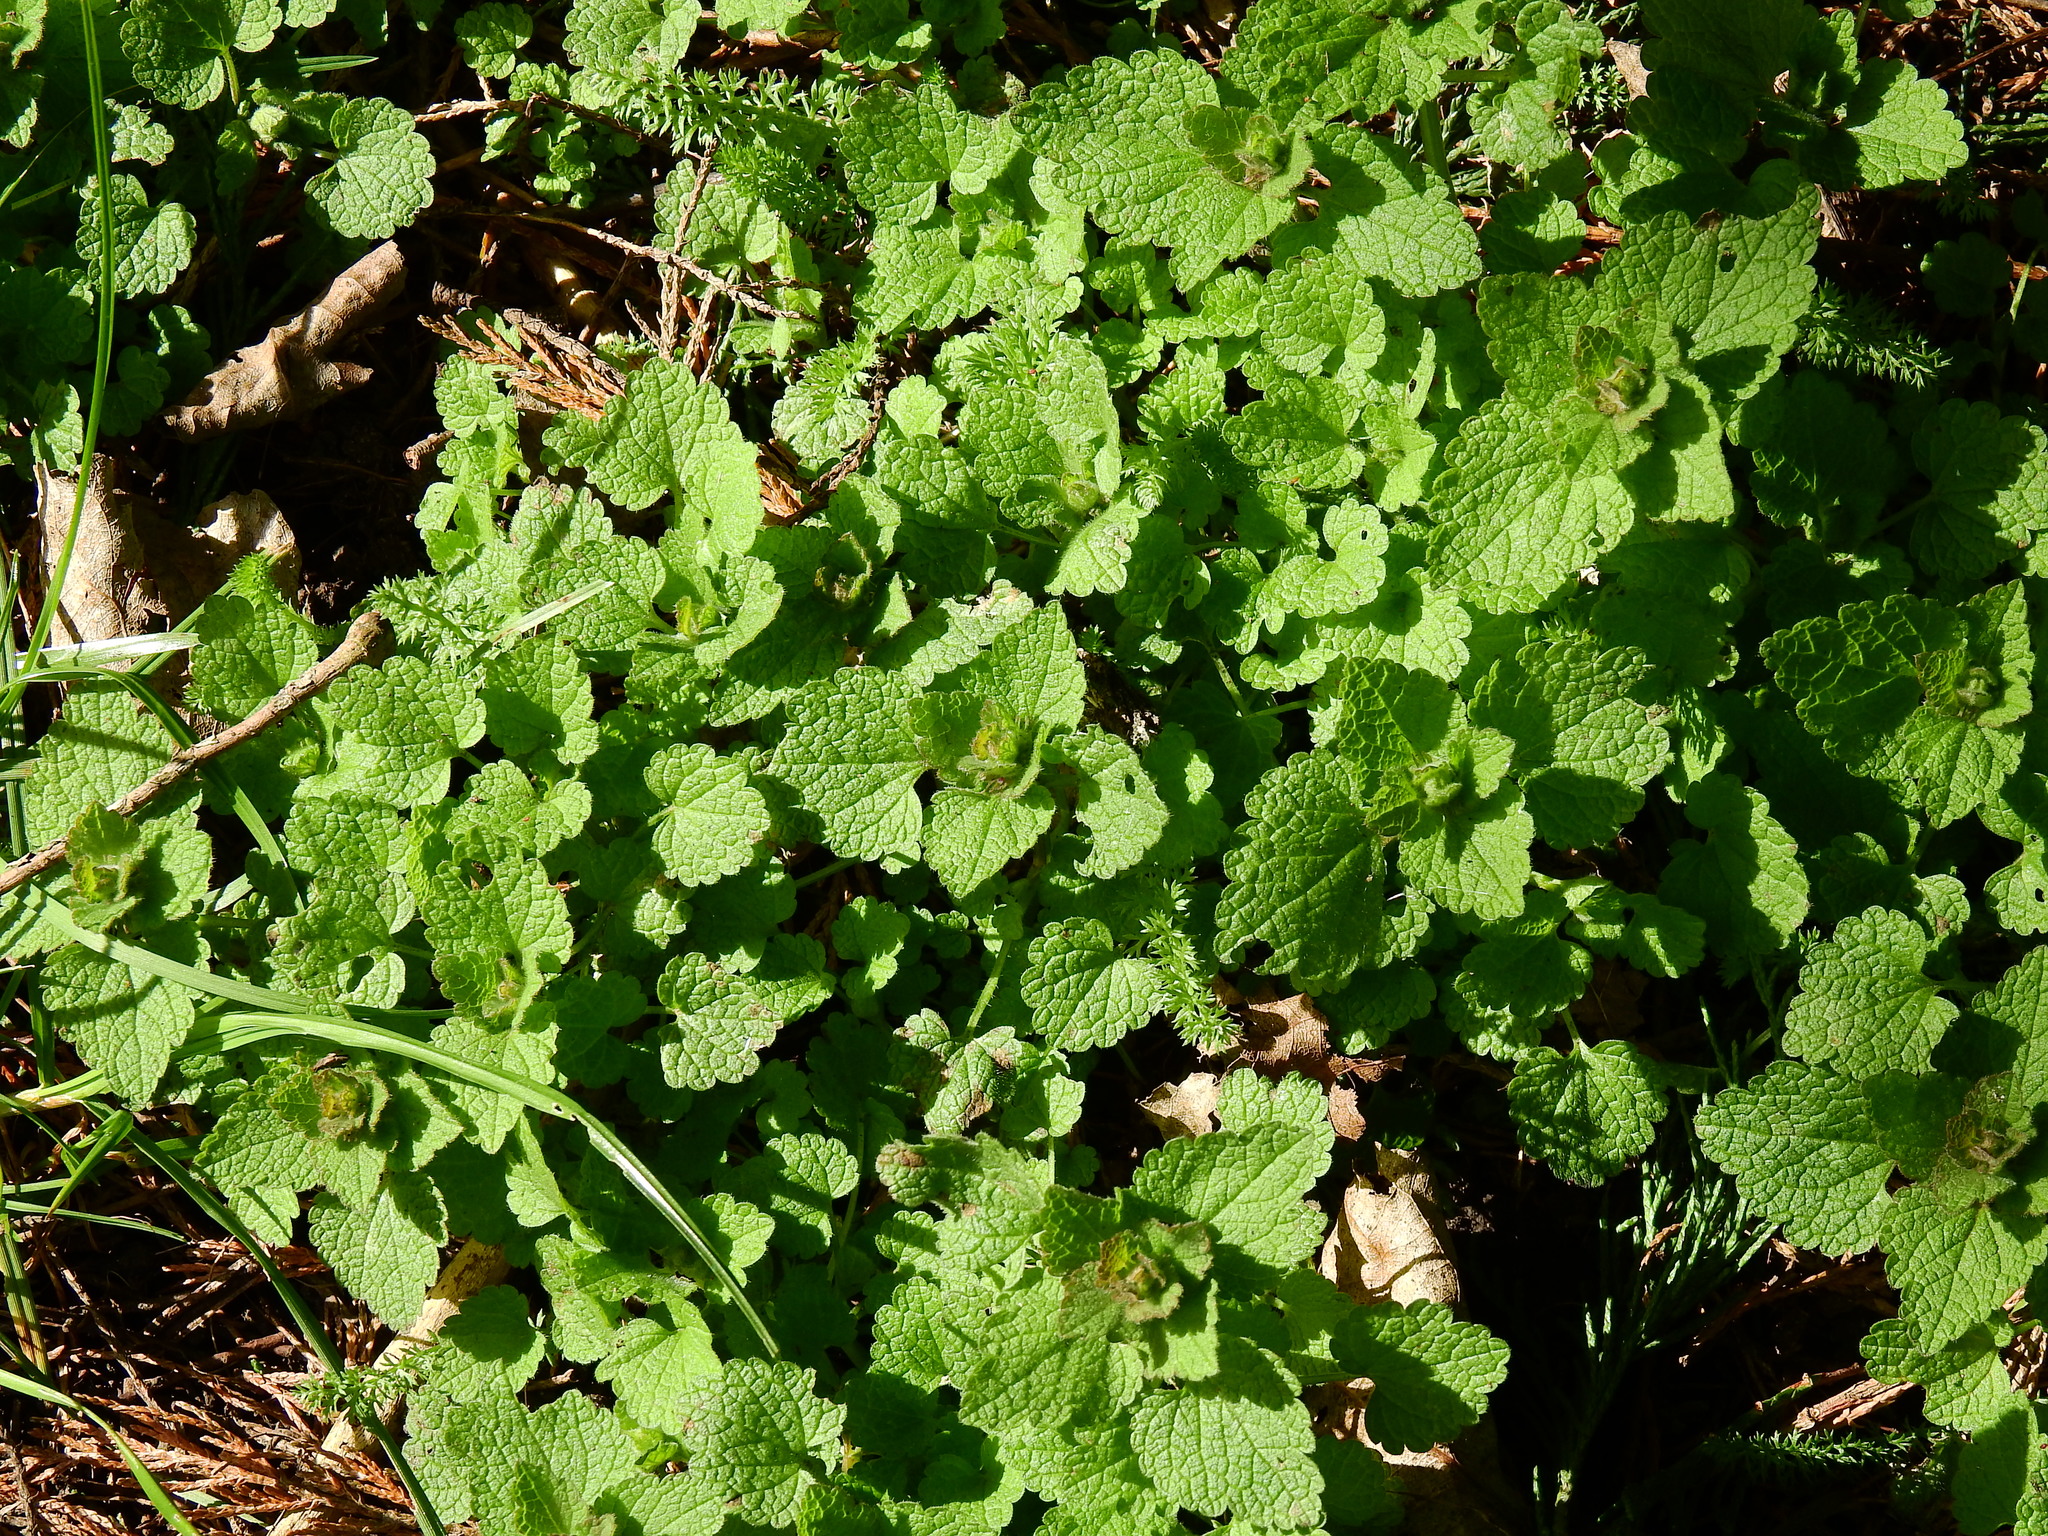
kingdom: Plantae
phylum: Tracheophyta
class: Magnoliopsida
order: Lamiales
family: Lamiaceae
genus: Lamium
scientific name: Lamium purpureum
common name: Red dead-nettle
